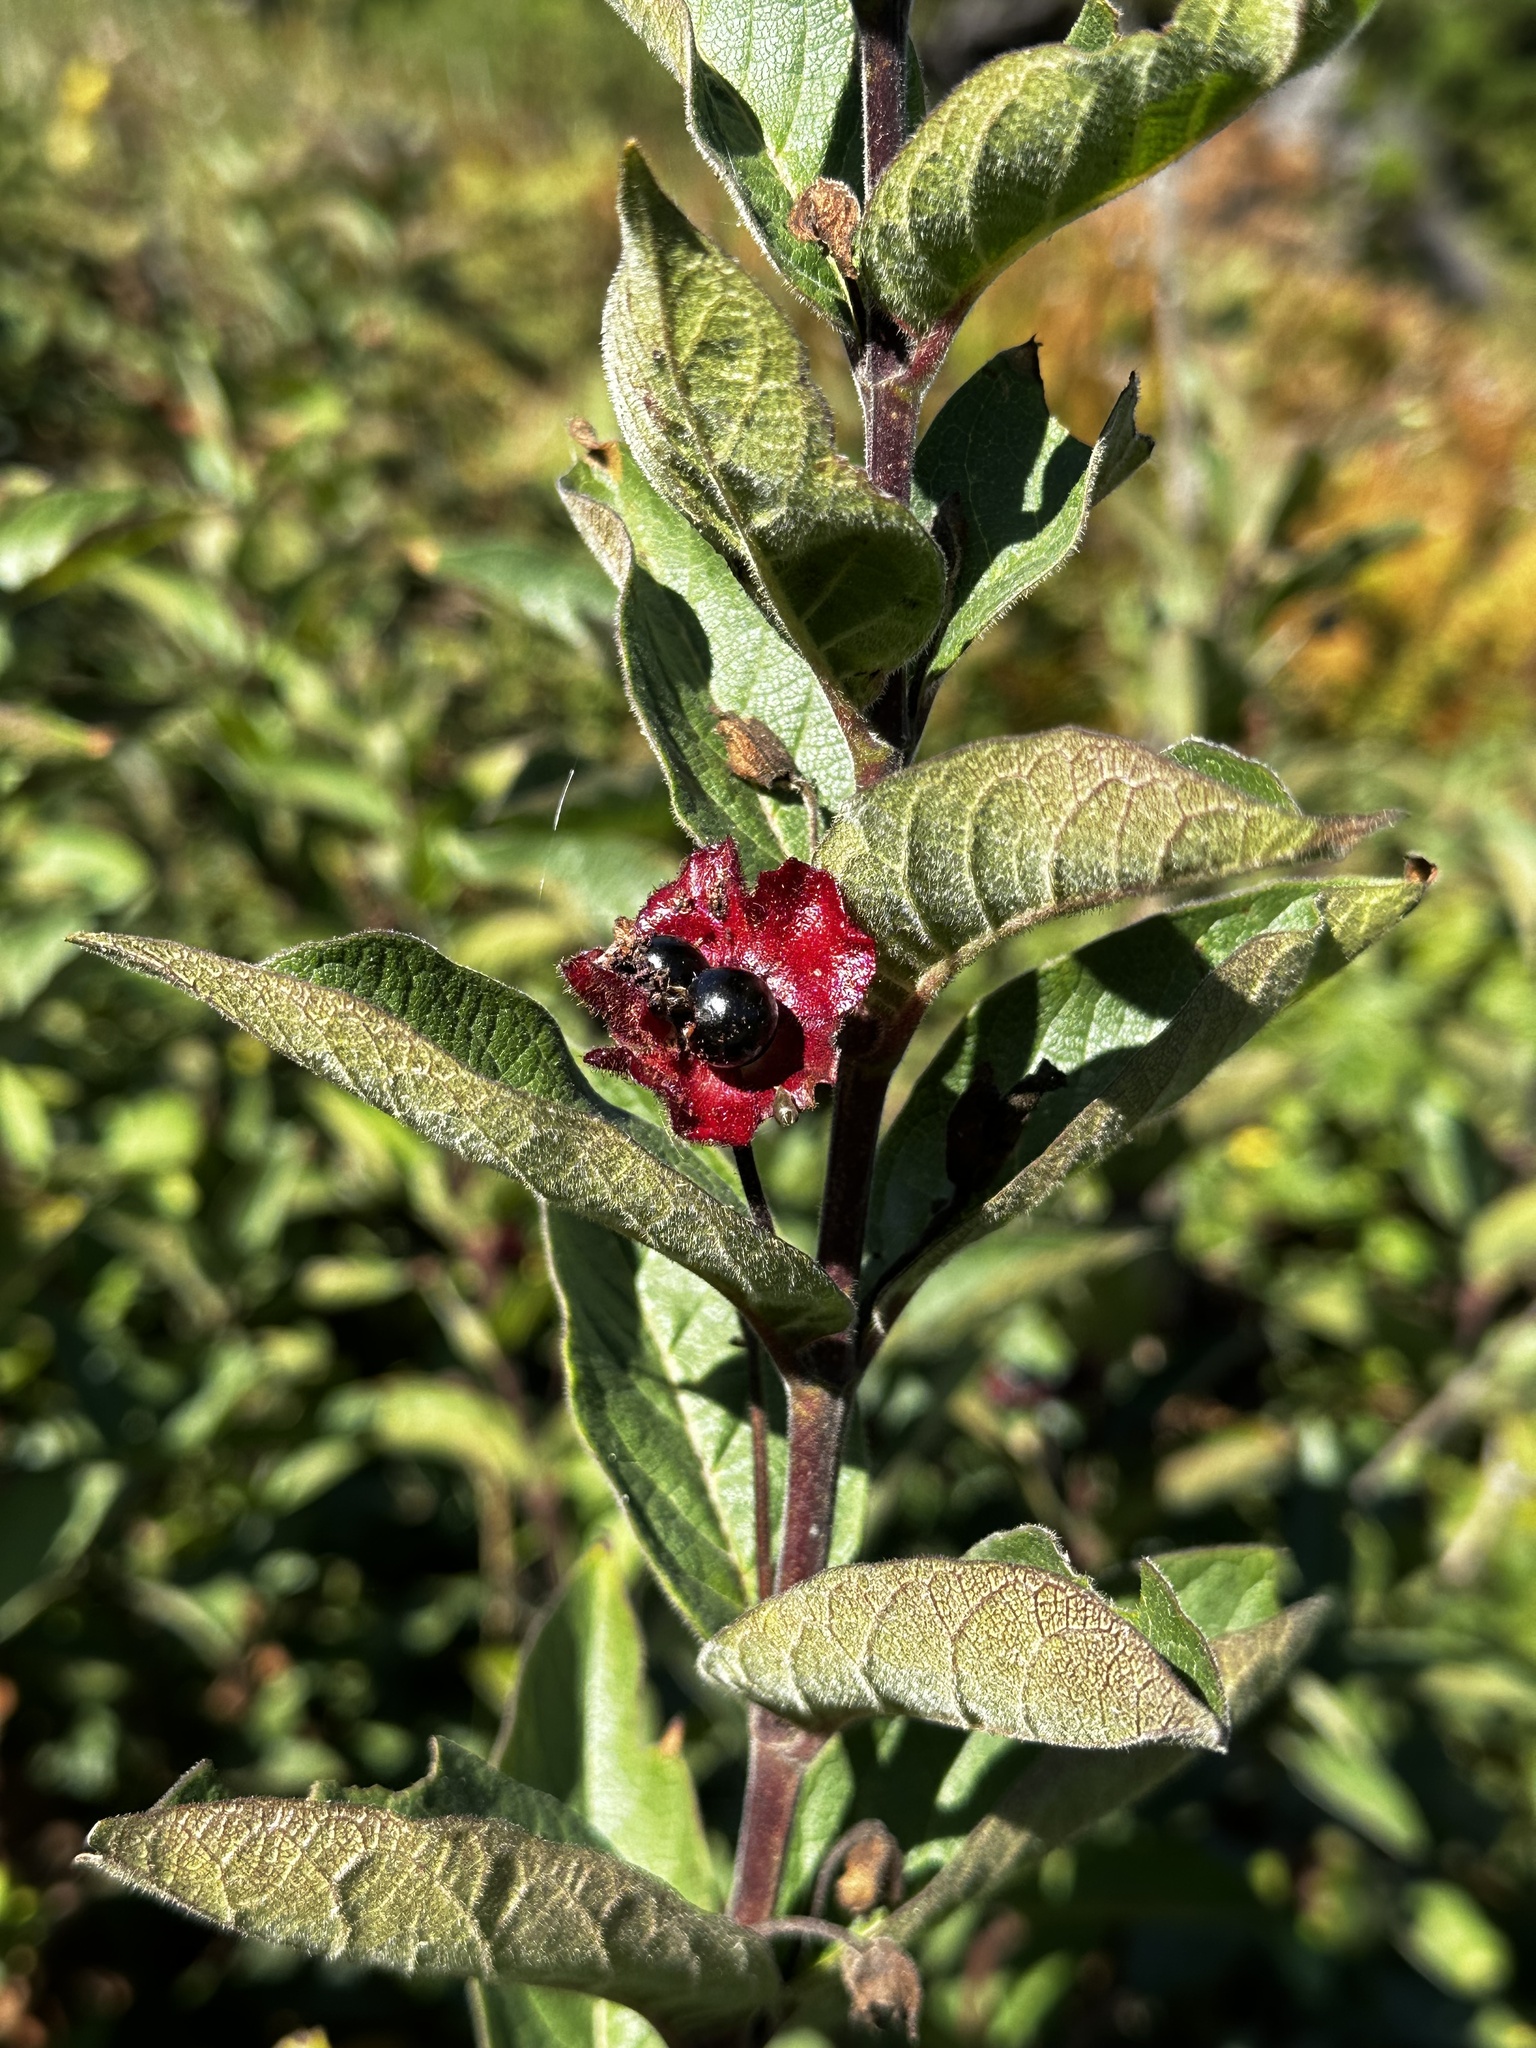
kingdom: Plantae
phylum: Tracheophyta
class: Magnoliopsida
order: Dipsacales
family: Caprifoliaceae
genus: Lonicera
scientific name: Lonicera involucrata
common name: Californian honeysuckle
